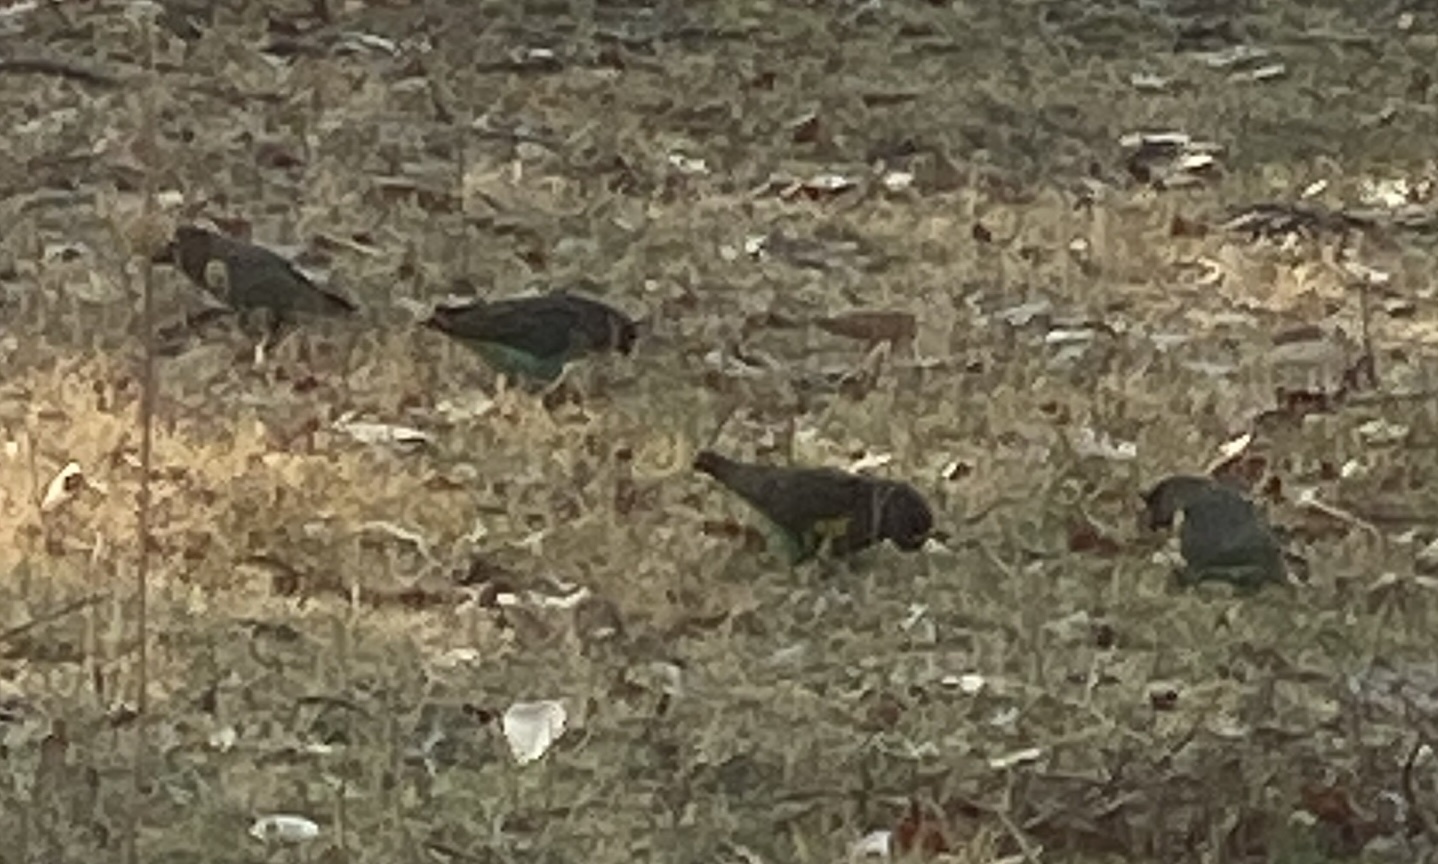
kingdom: Animalia
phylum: Chordata
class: Aves
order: Psittaciformes
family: Psittacidae
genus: Poicephalus
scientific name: Poicephalus meyeri
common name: Meyer's parrot
